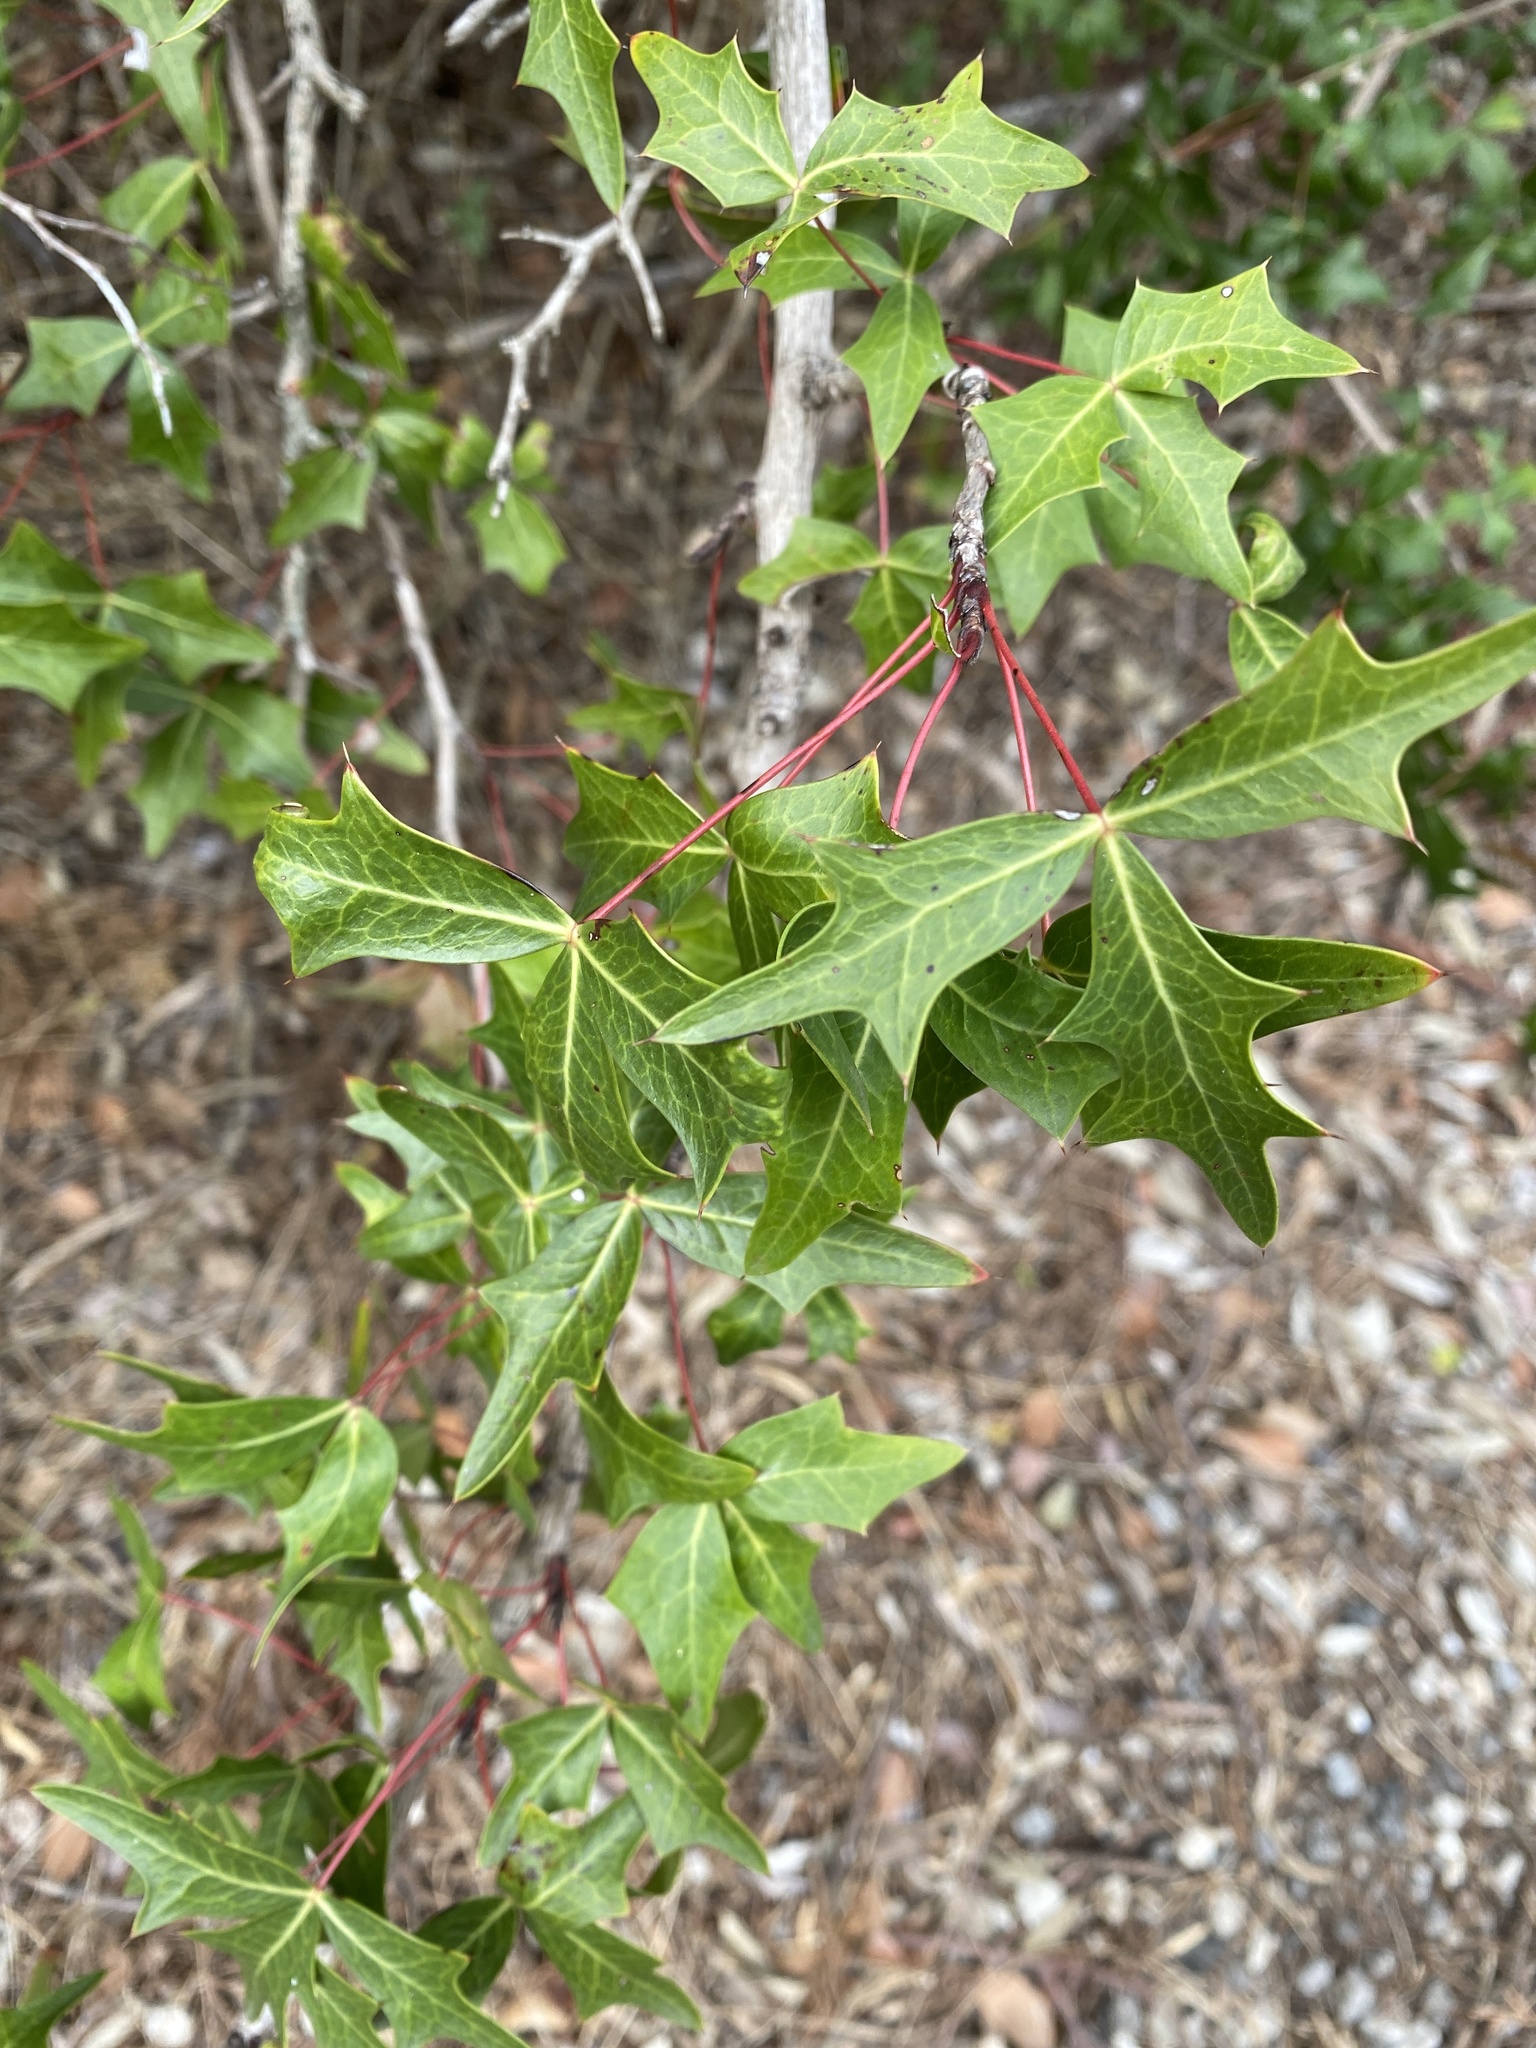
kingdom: Plantae
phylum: Tracheophyta
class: Magnoliopsida
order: Ranunculales
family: Berberidaceae
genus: Alloberberis
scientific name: Alloberberis trifoliolata
